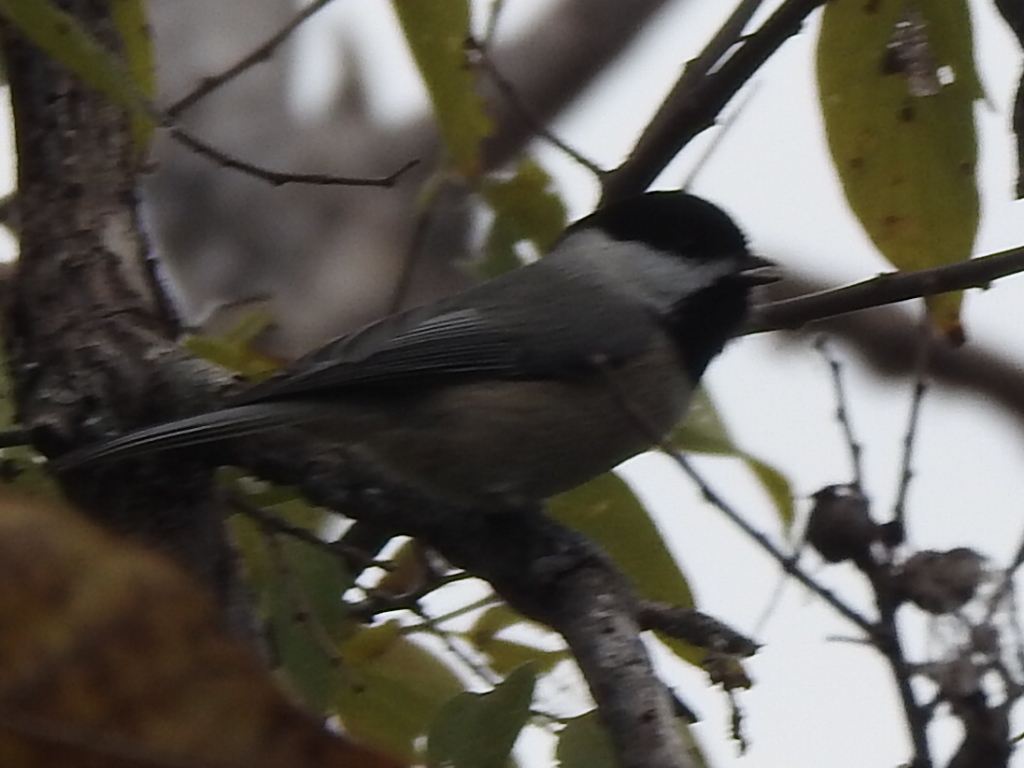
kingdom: Animalia
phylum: Chordata
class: Aves
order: Passeriformes
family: Paridae
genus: Poecile
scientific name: Poecile carolinensis
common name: Carolina chickadee
